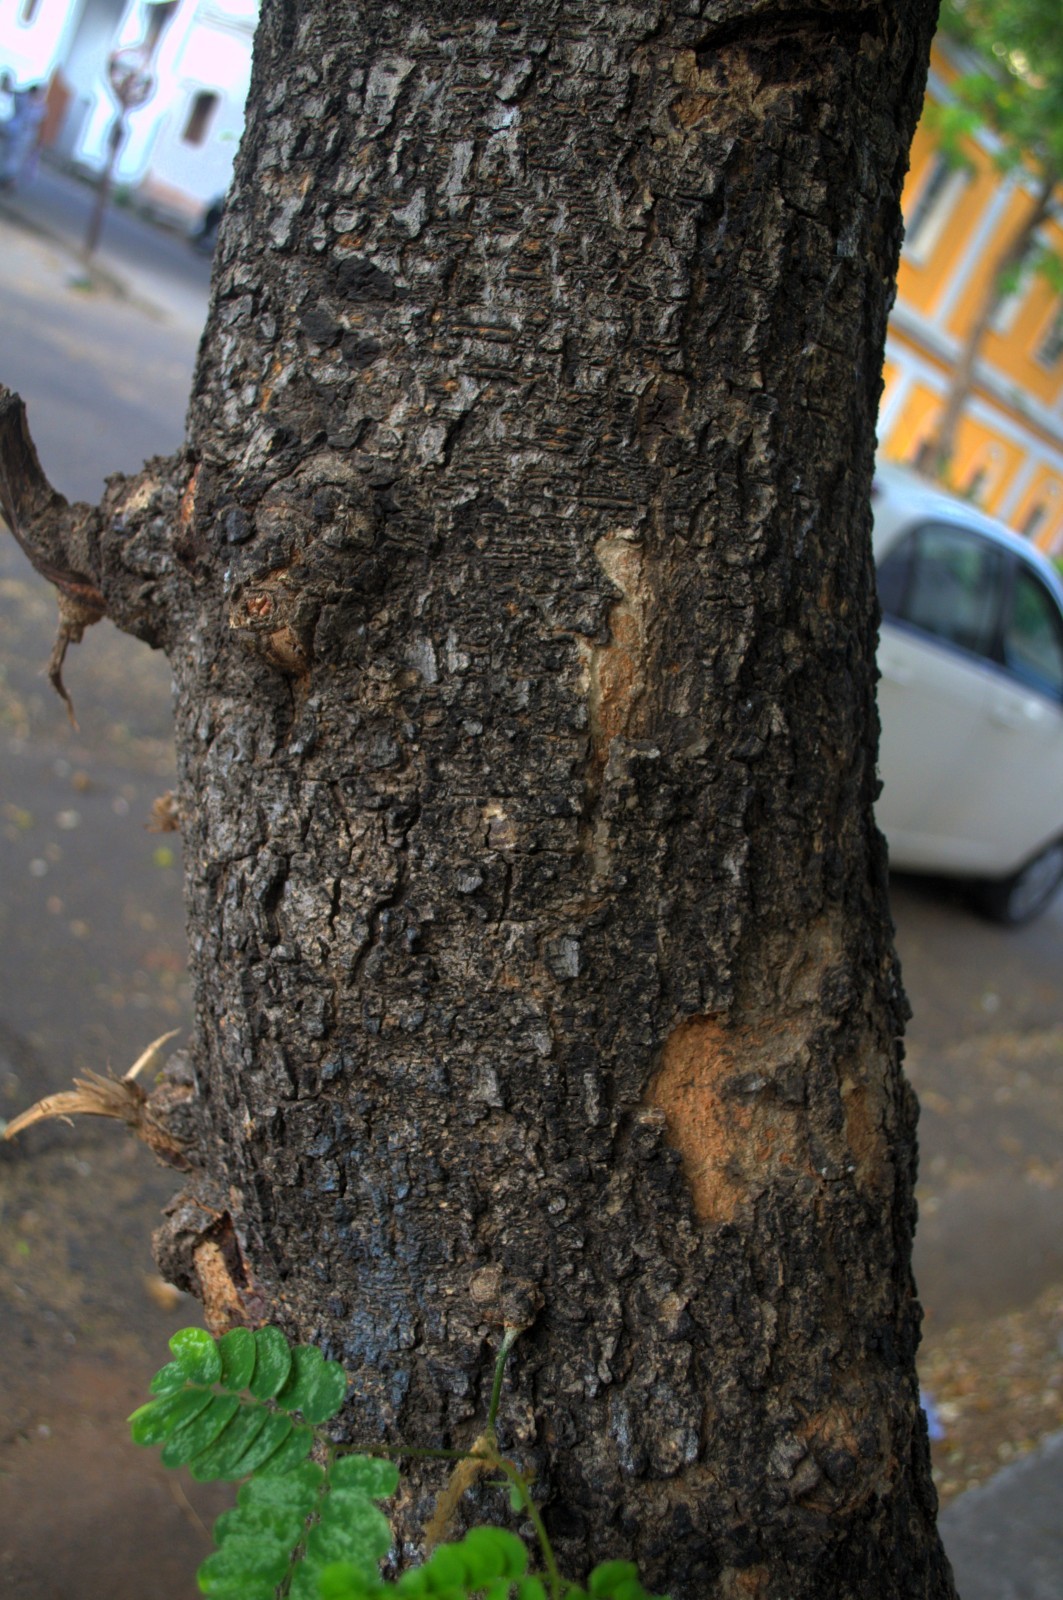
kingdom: Plantae
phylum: Tracheophyta
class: Magnoliopsida
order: Fabales
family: Fabaceae
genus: Albizia
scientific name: Albizia lebbeck
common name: Woman's tongue
